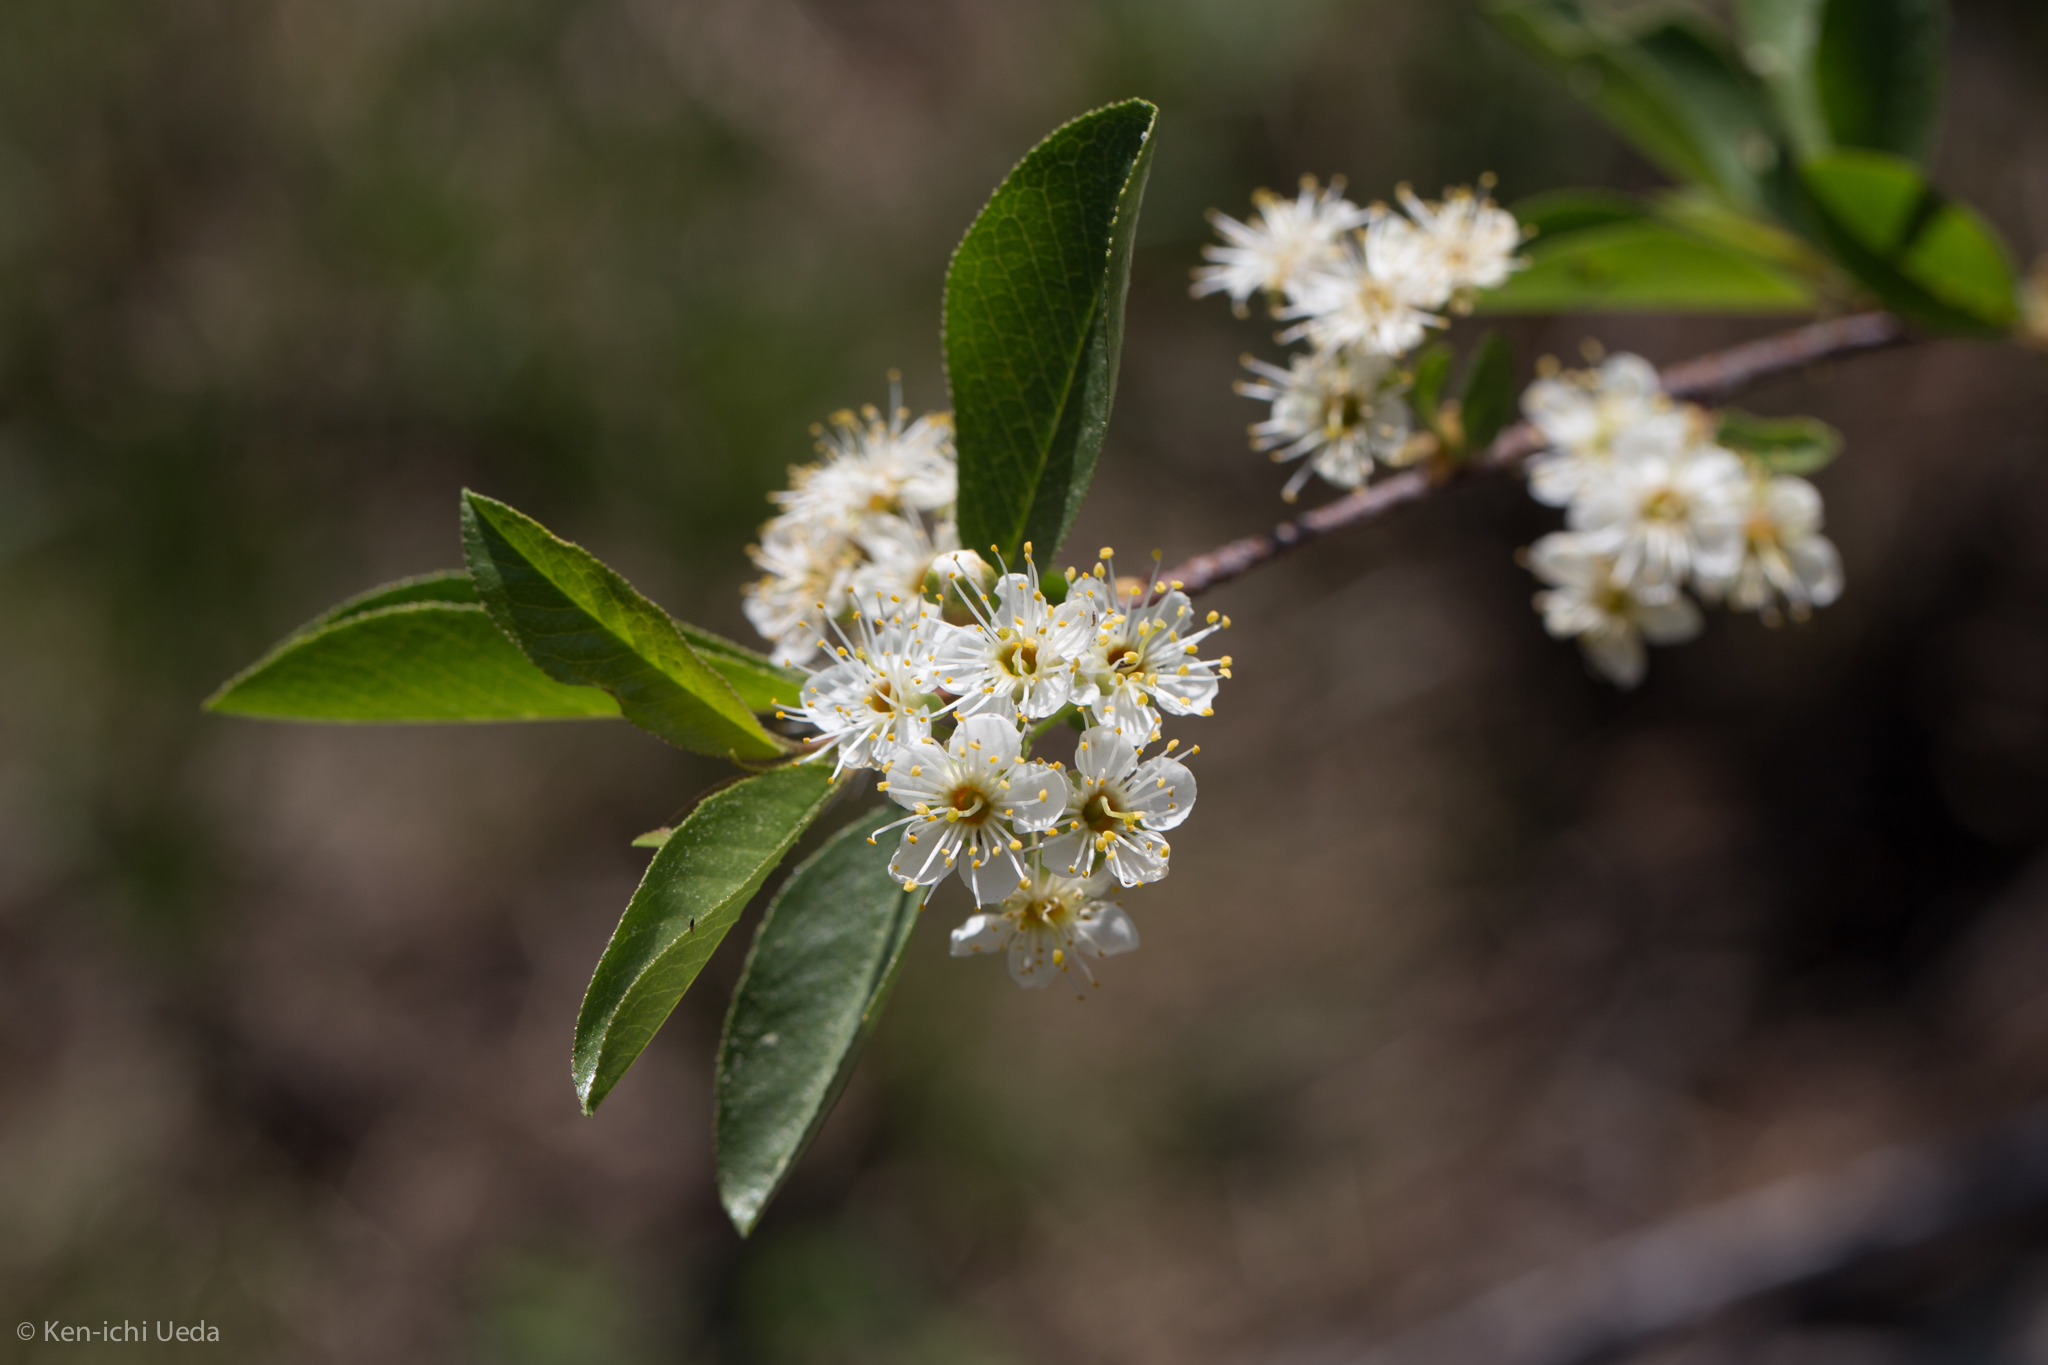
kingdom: Plantae
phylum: Tracheophyta
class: Magnoliopsida
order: Rosales
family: Rosaceae
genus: Prunus
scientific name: Prunus emarginata
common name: Bitter cherry
